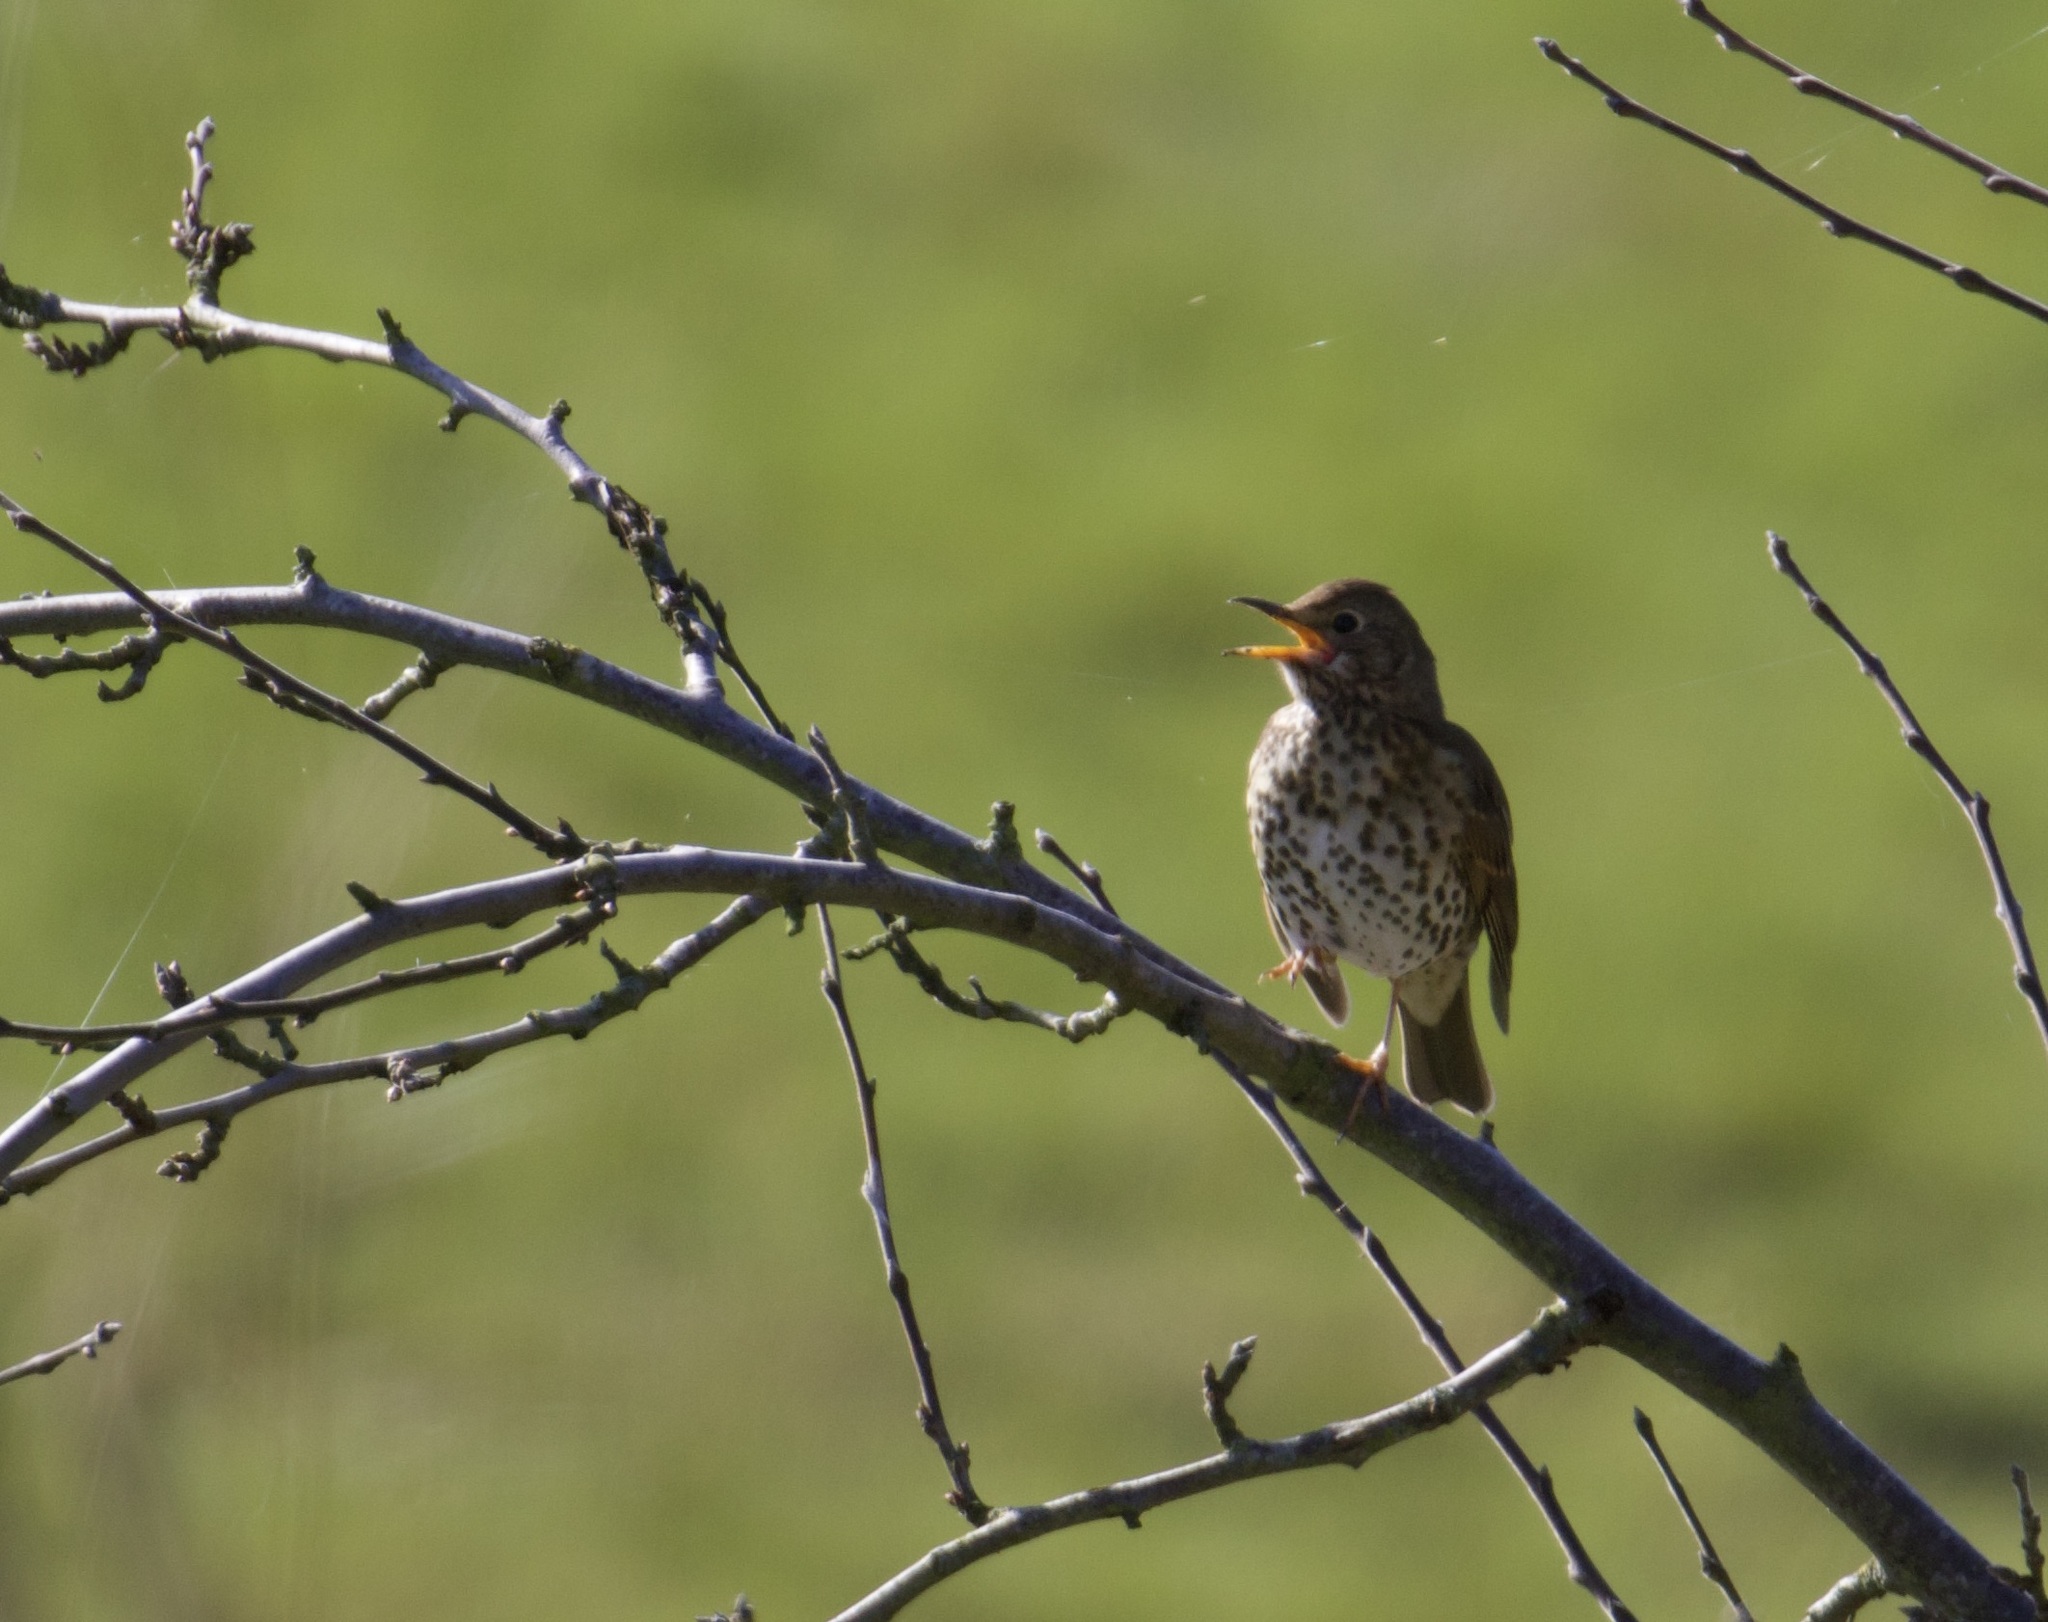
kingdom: Animalia
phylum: Chordata
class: Aves
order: Passeriformes
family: Turdidae
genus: Turdus
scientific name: Turdus philomelos
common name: Song thrush
